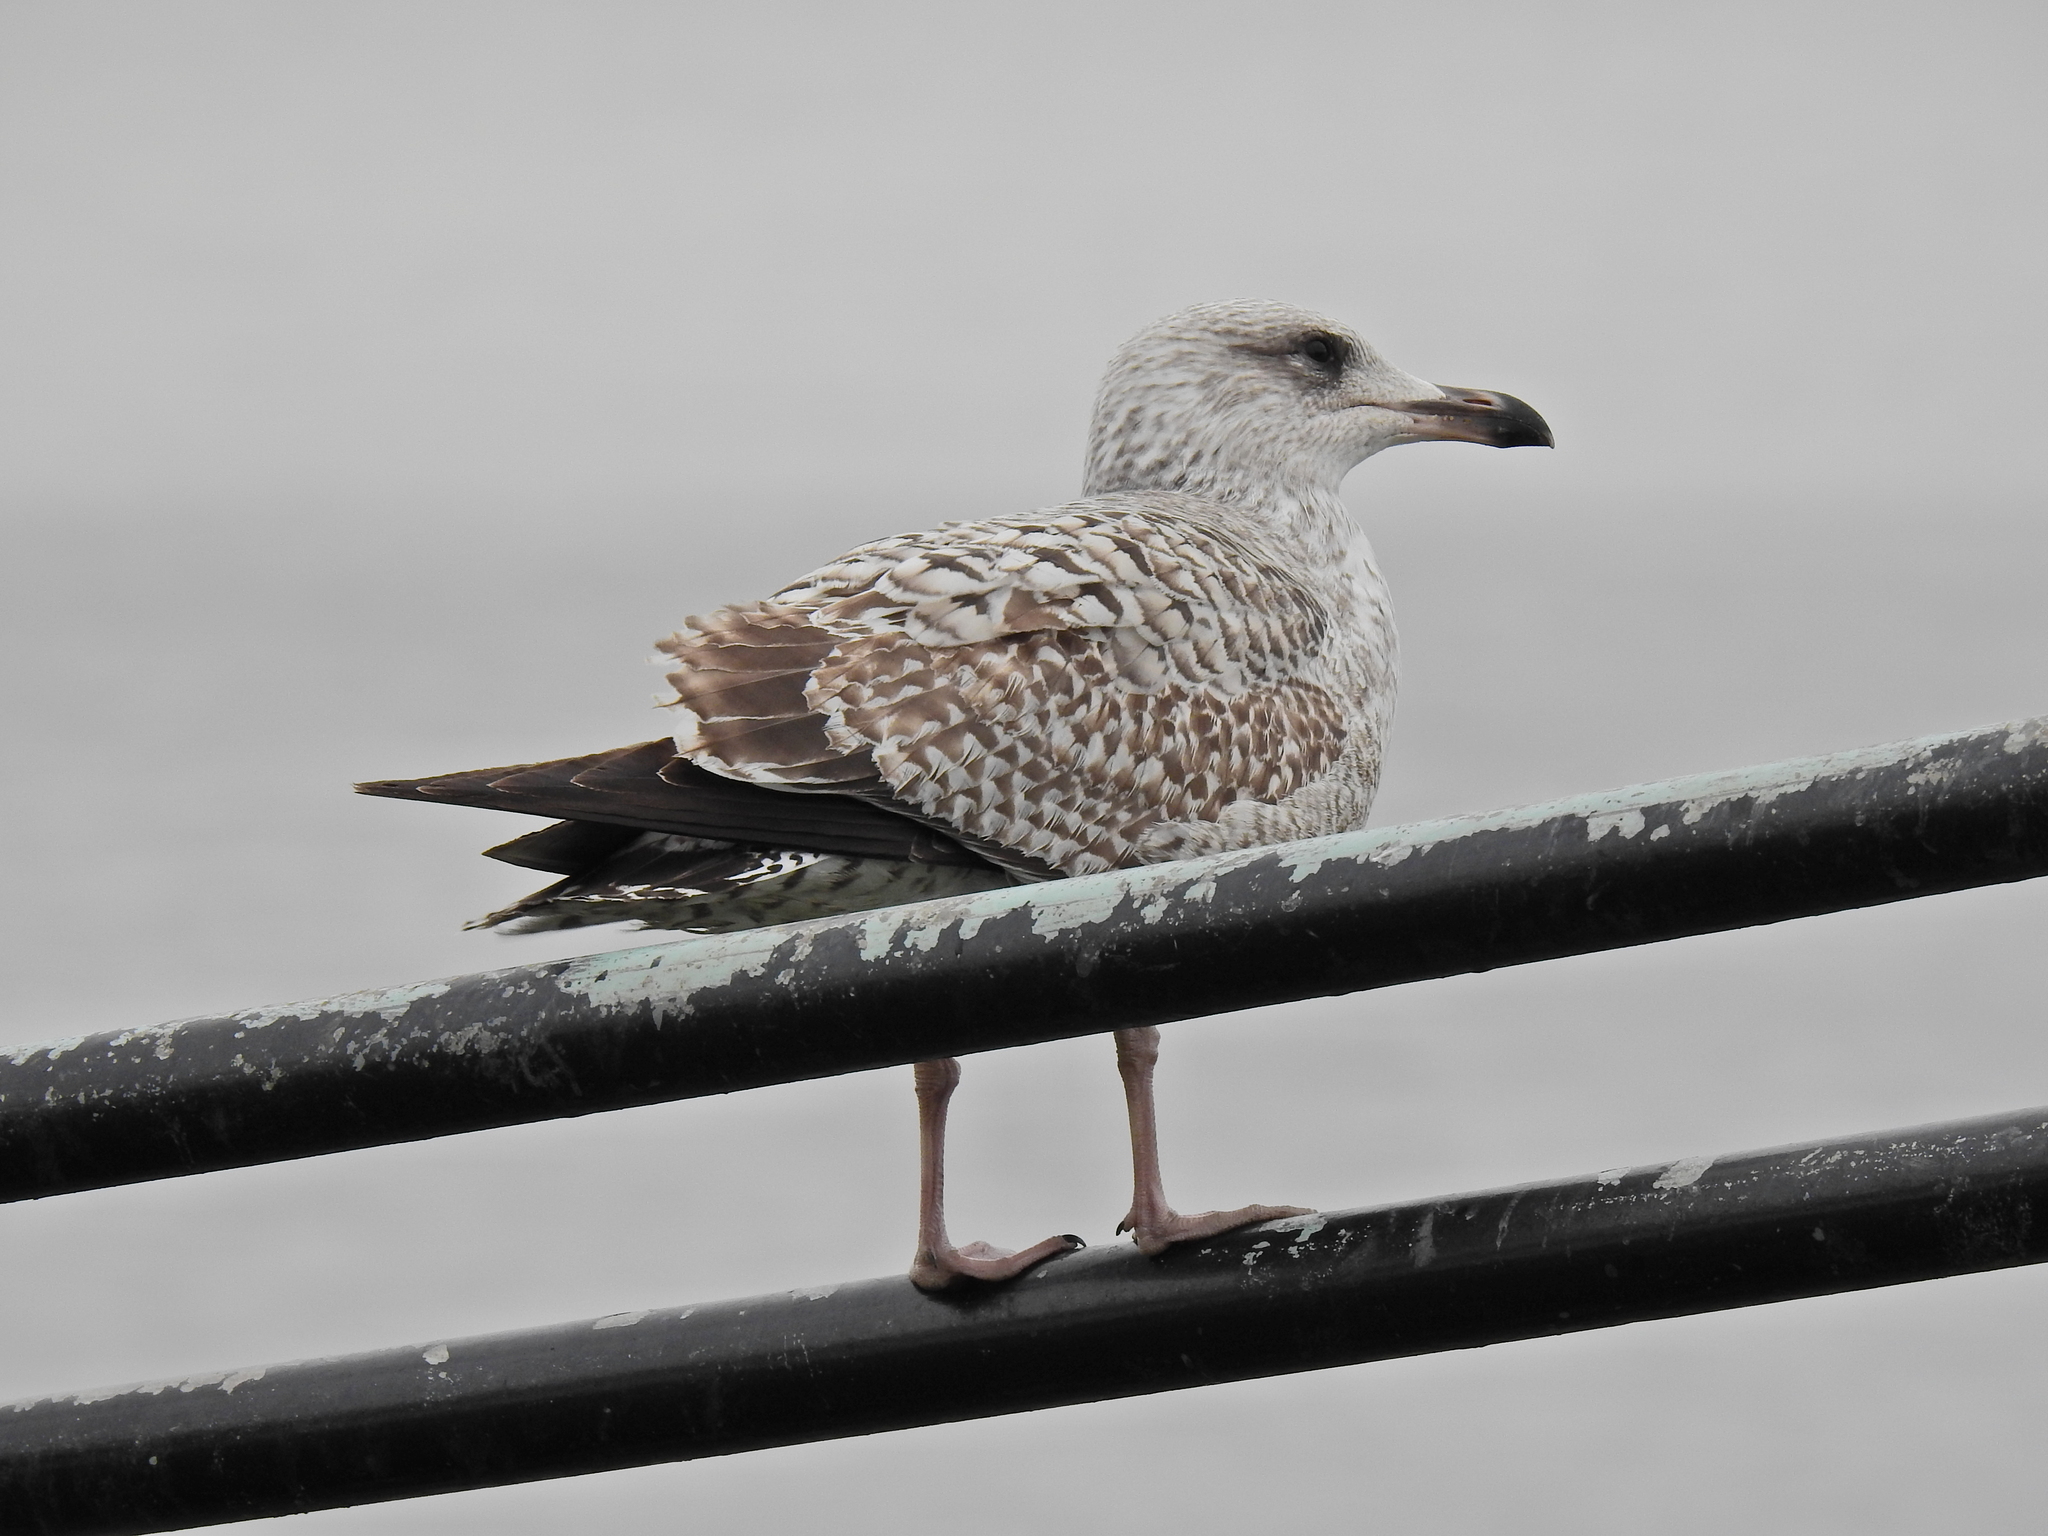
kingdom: Animalia
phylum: Chordata
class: Aves
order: Charadriiformes
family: Laridae
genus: Larus
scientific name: Larus argentatus
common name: Herring gull
